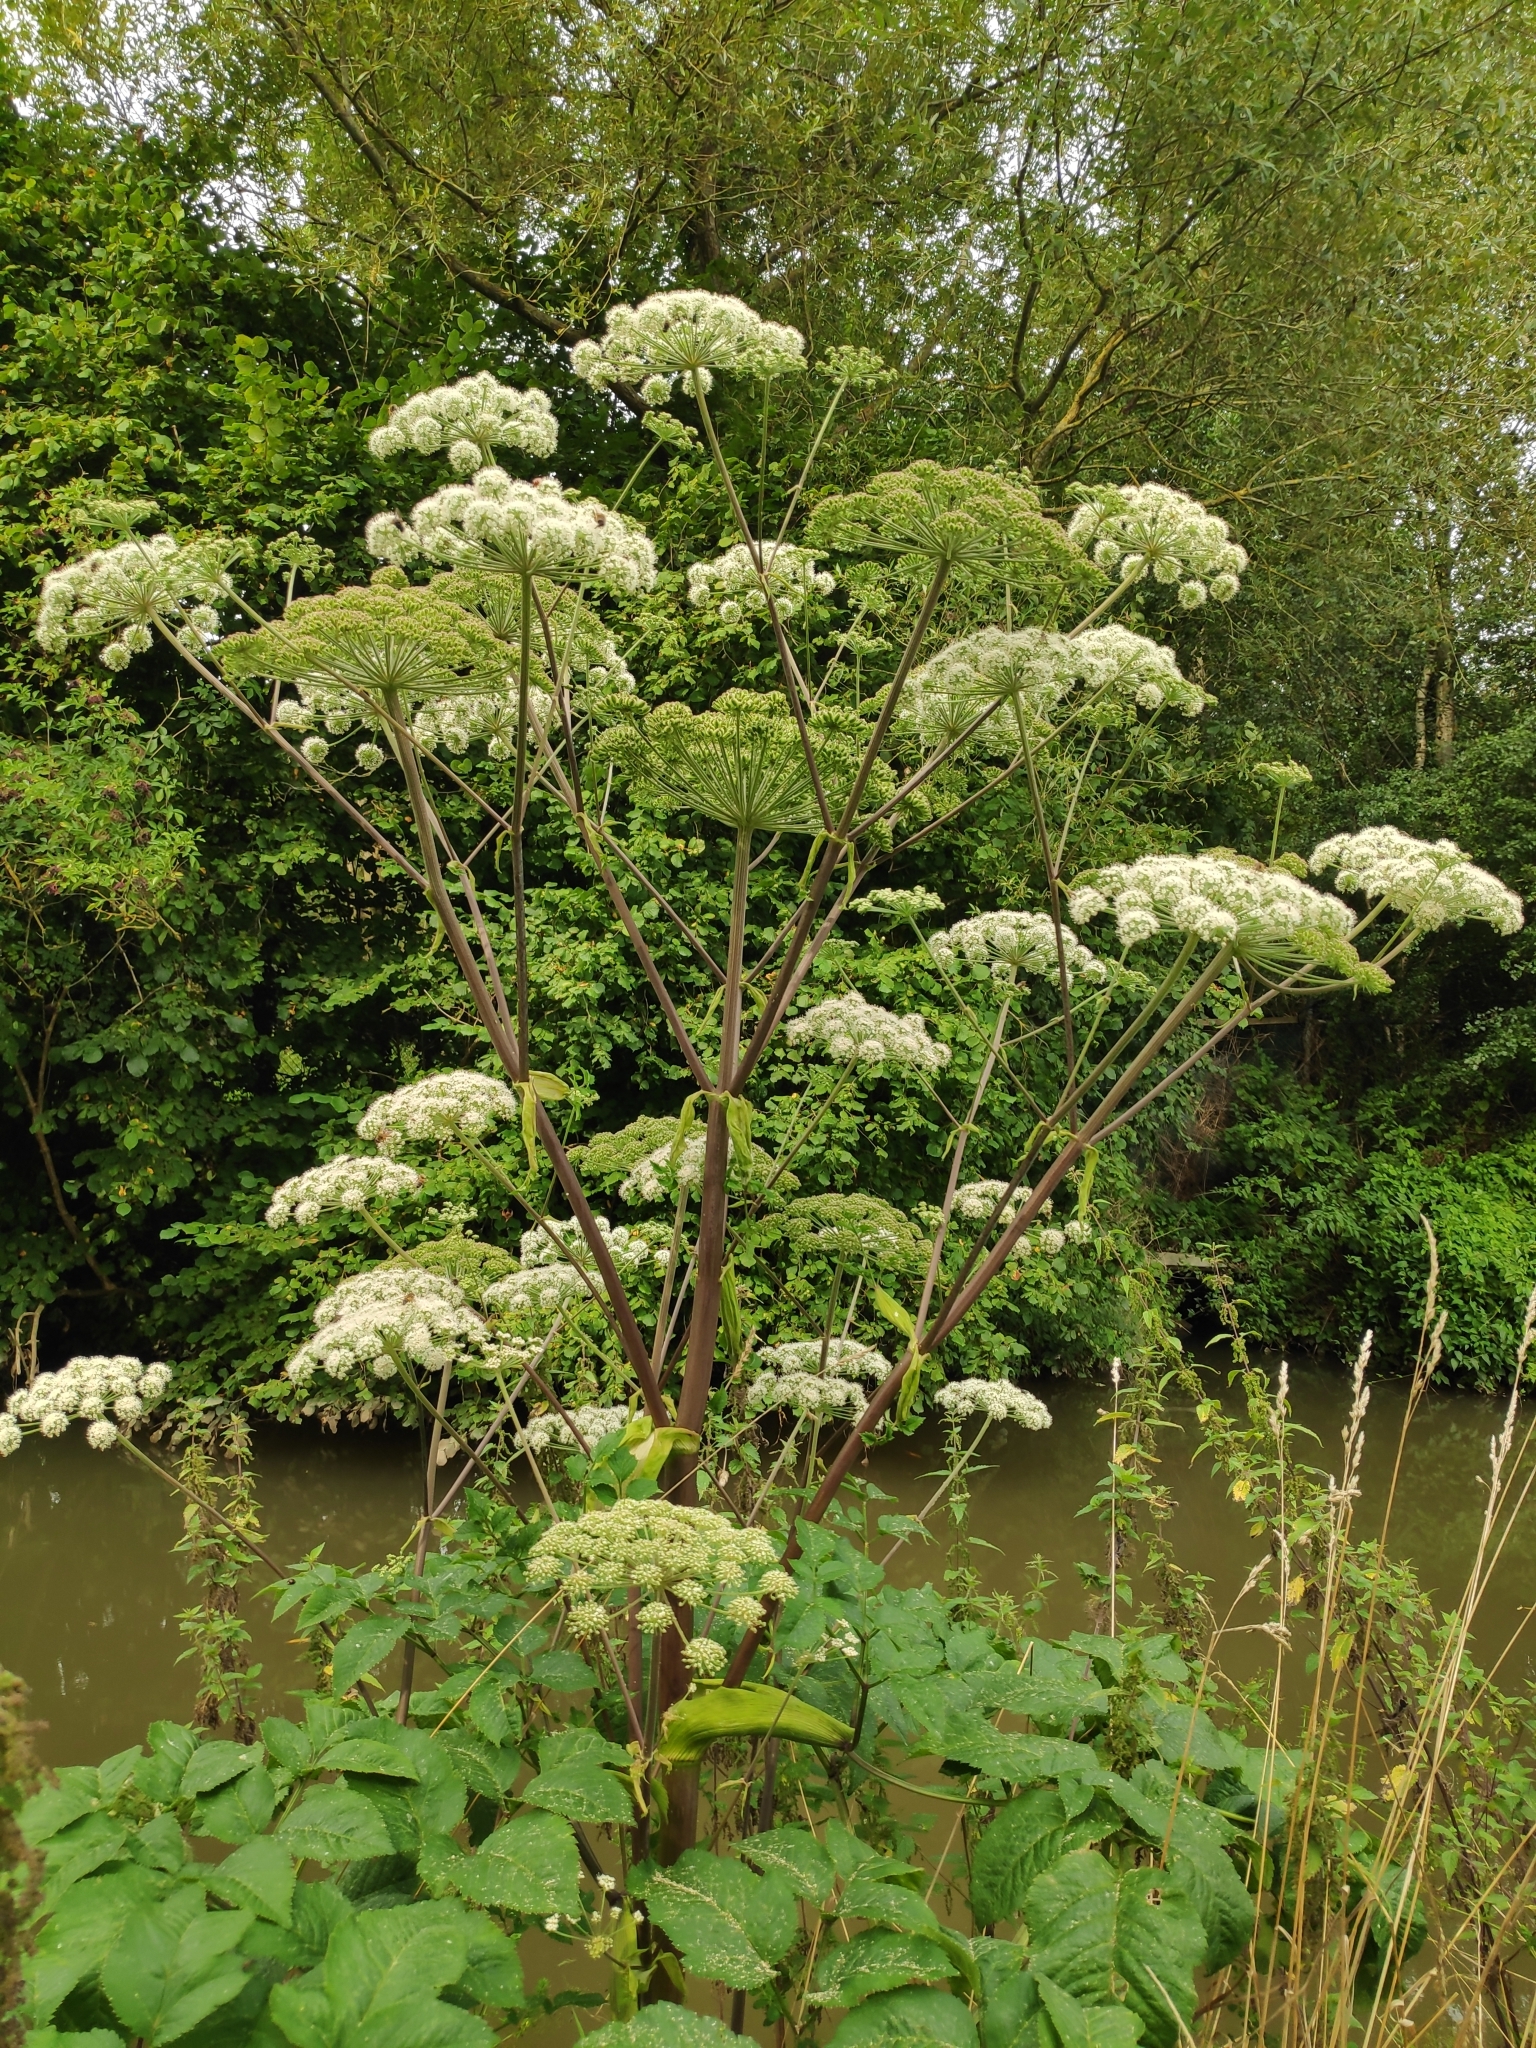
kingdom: Plantae
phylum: Tracheophyta
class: Magnoliopsida
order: Apiales
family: Apiaceae
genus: Angelica
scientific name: Angelica sylvestris
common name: Wild angelica
